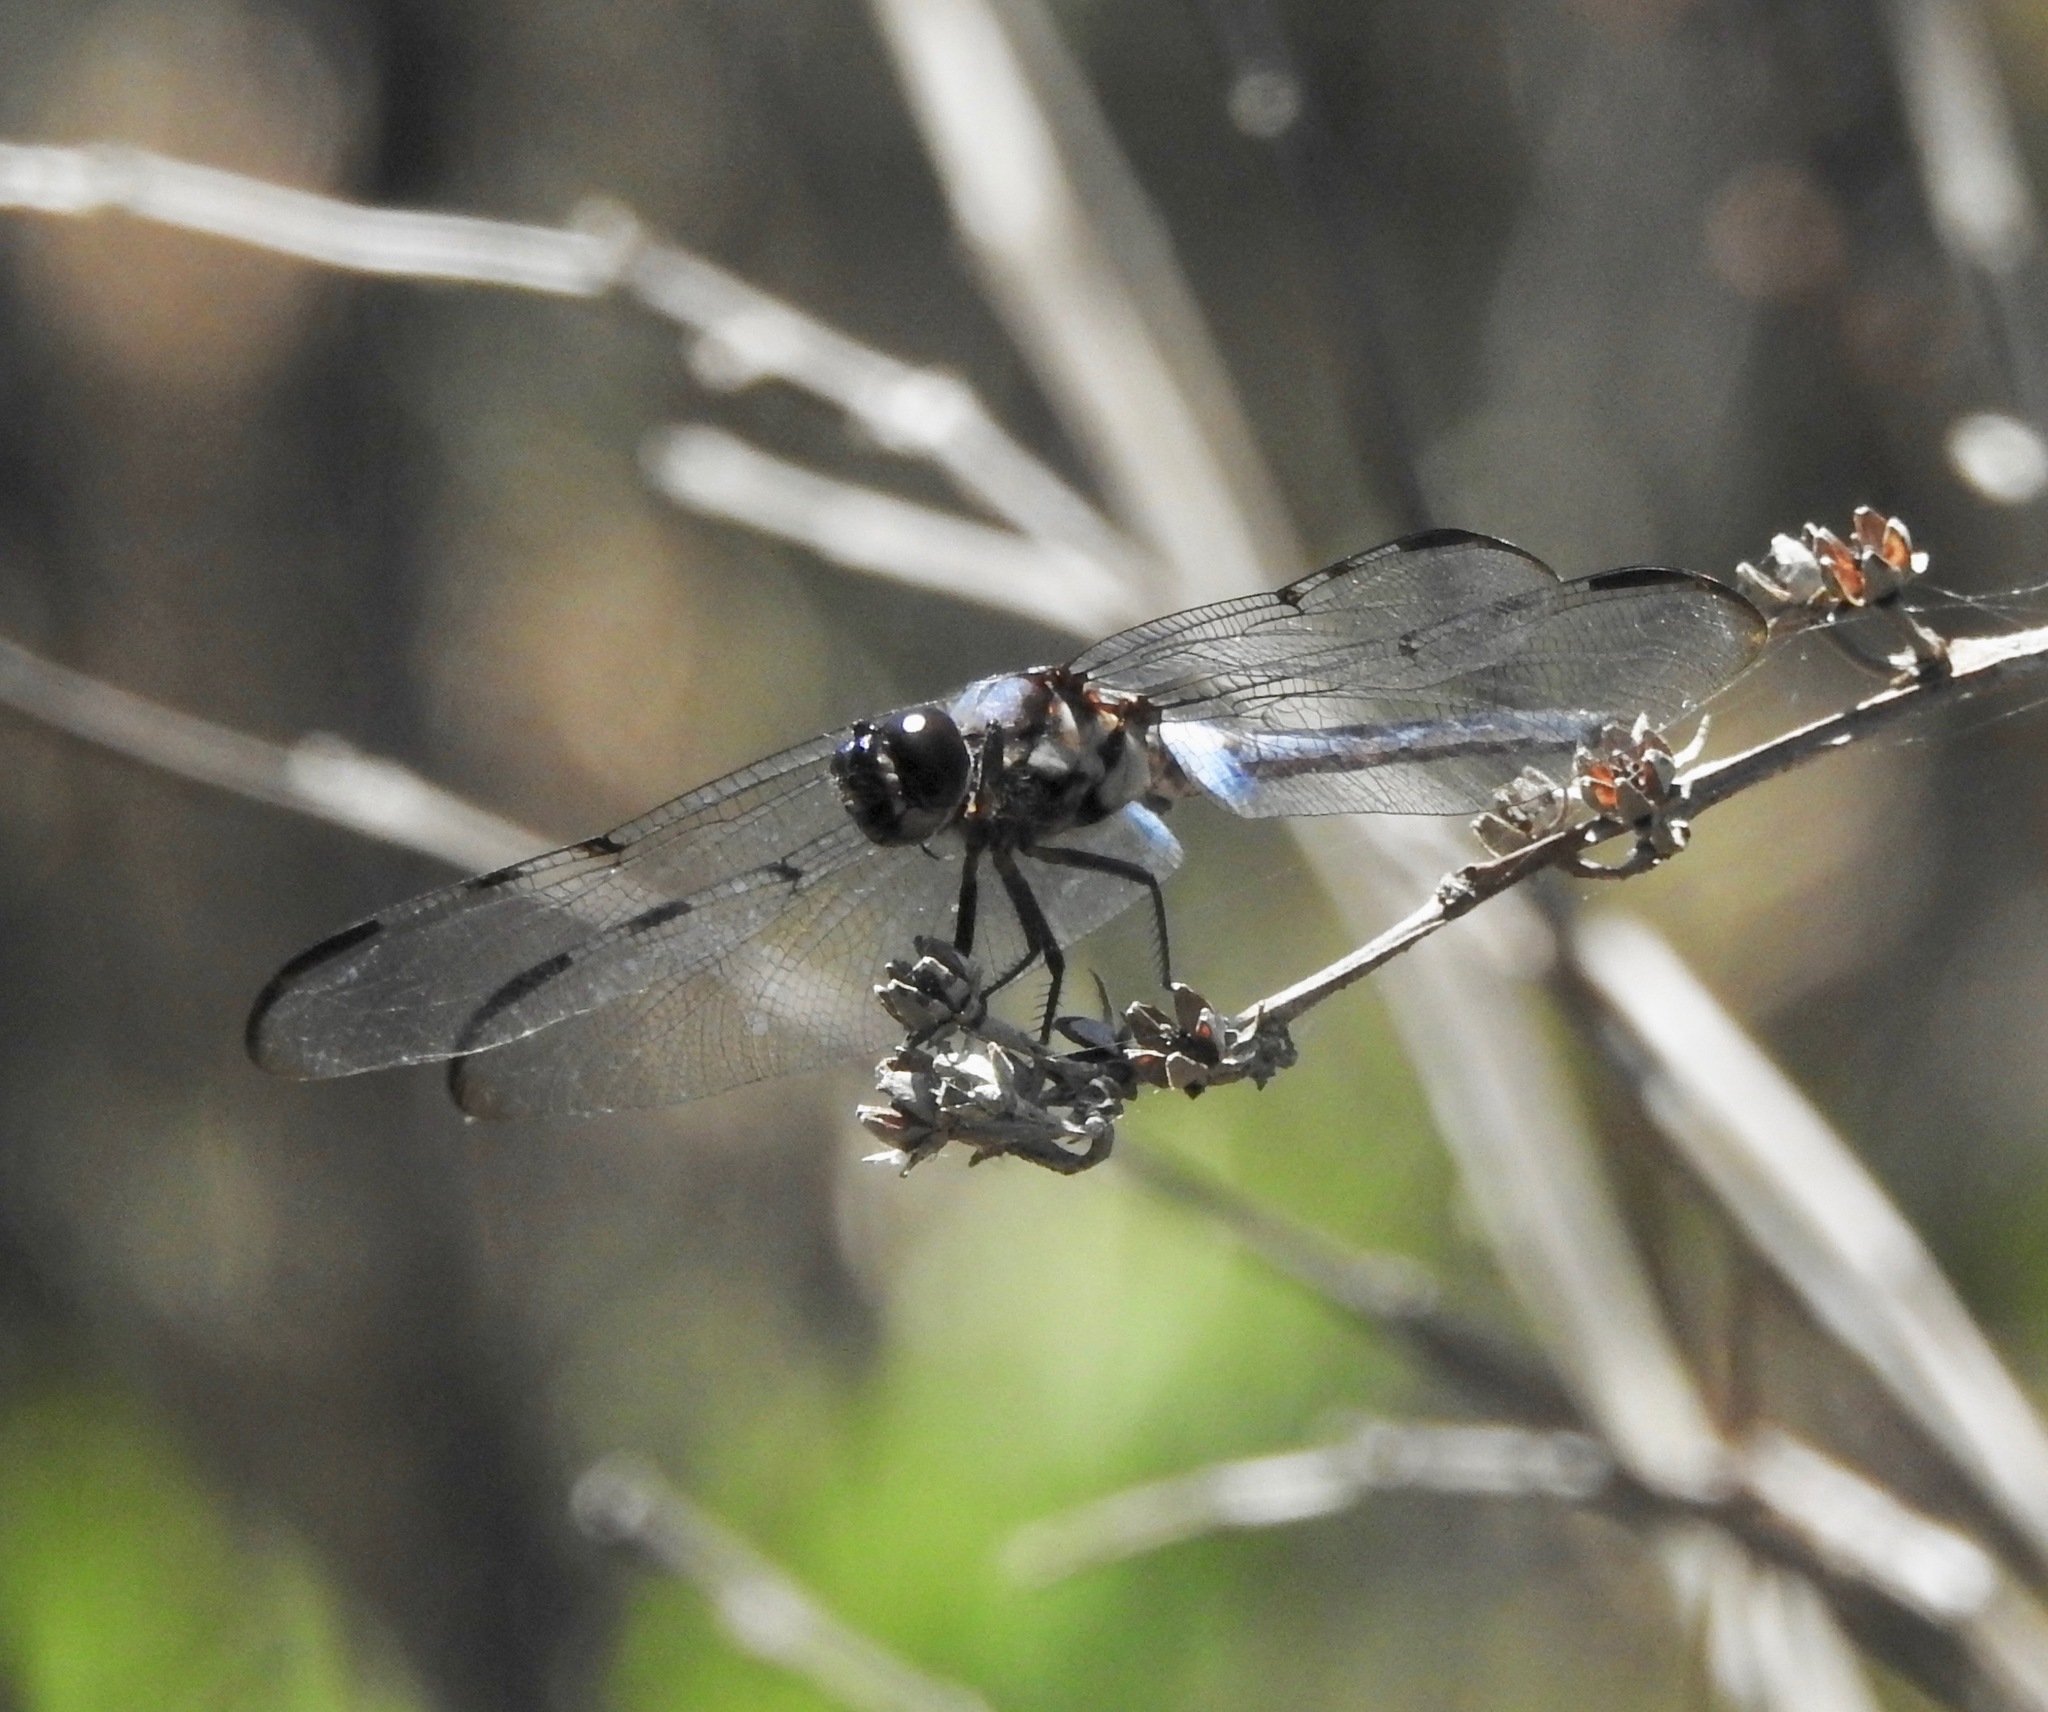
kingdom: Animalia
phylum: Arthropoda
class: Insecta
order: Odonata
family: Libellulidae
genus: Libellula
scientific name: Libellula axilena
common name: Bar-winged skimmer
